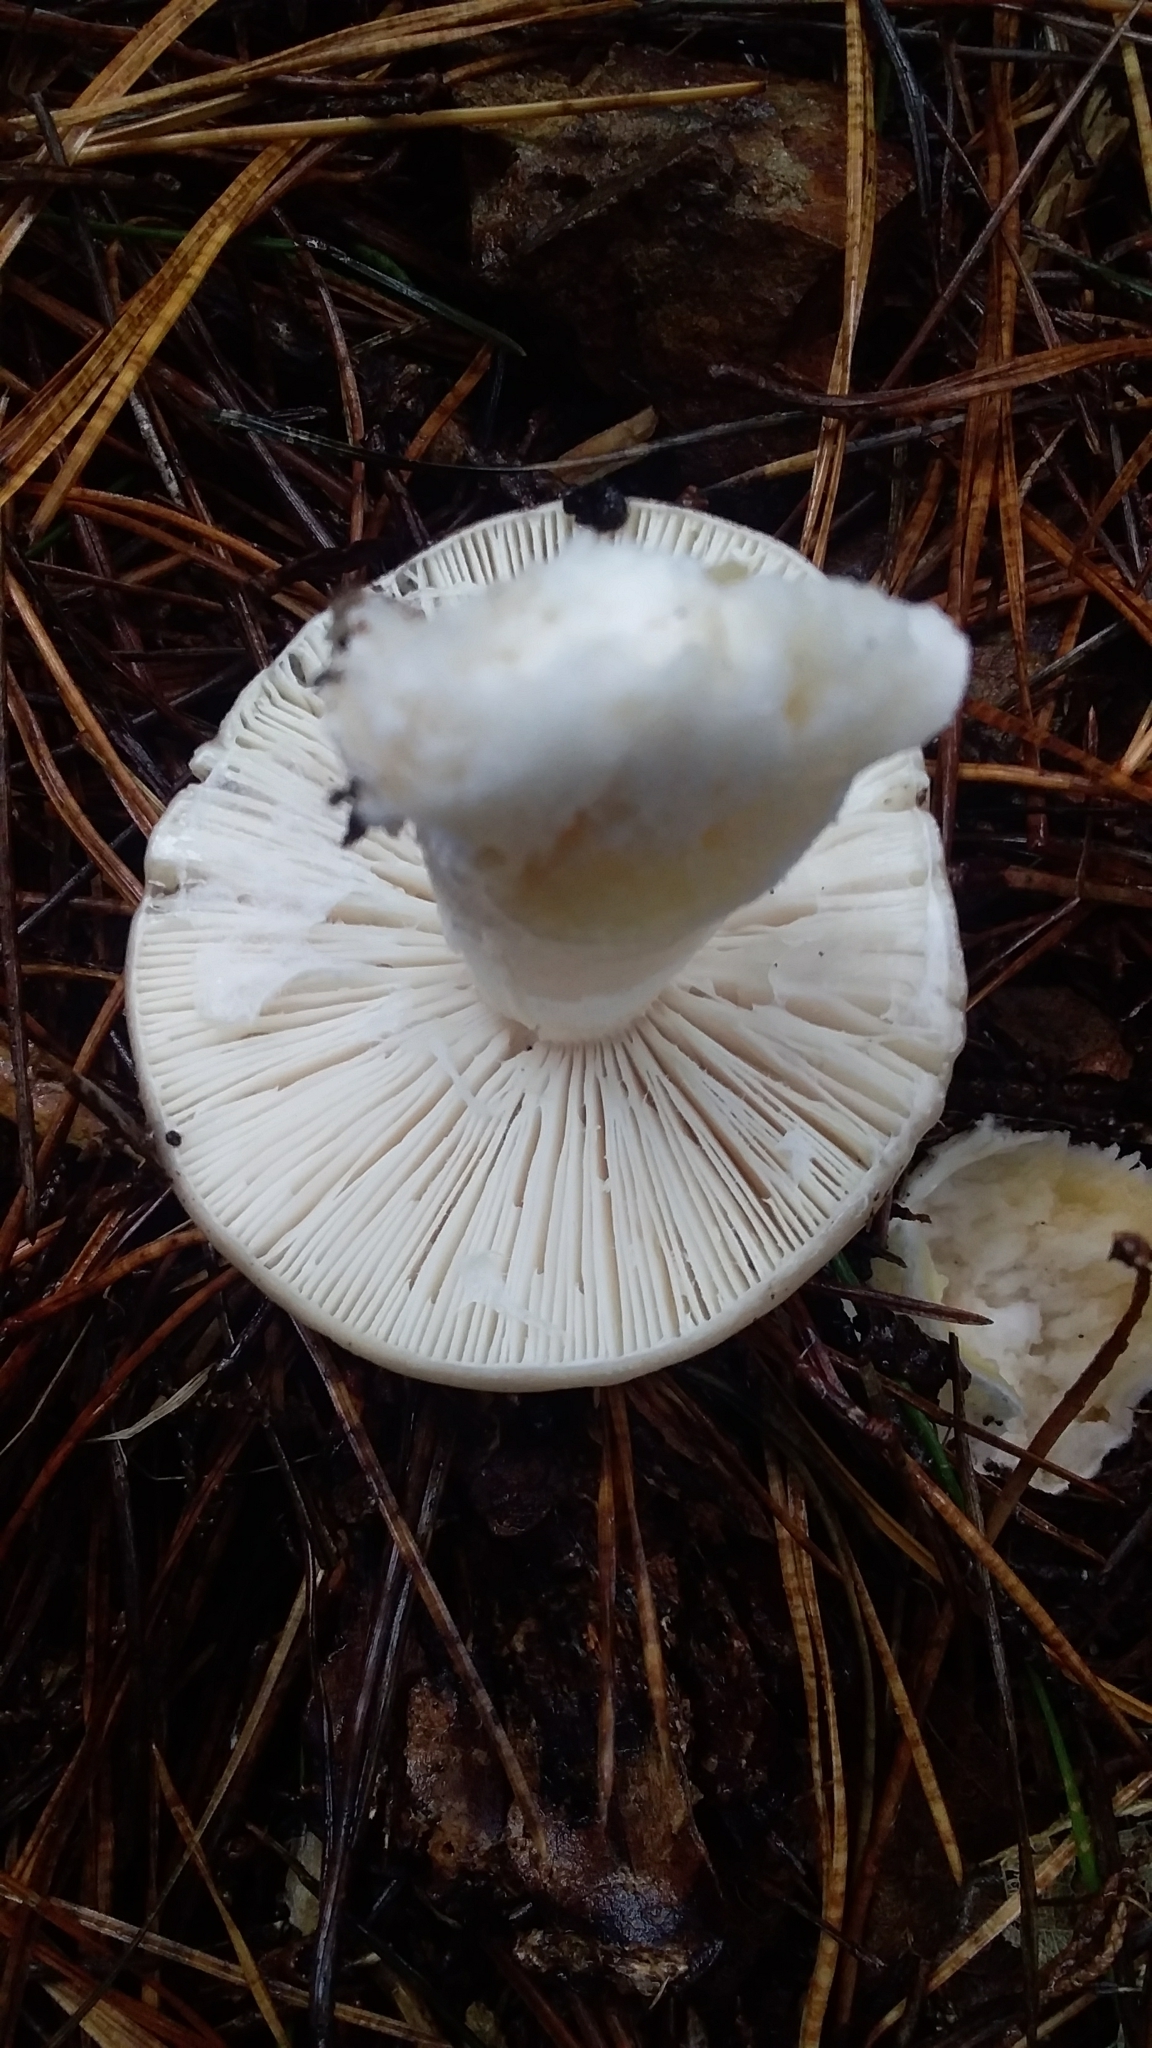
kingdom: Fungi
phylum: Basidiomycota
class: Agaricomycetes
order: Agaricales
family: Amanitaceae
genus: Amanita
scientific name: Amanita gemmata
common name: Jewelled amanita
